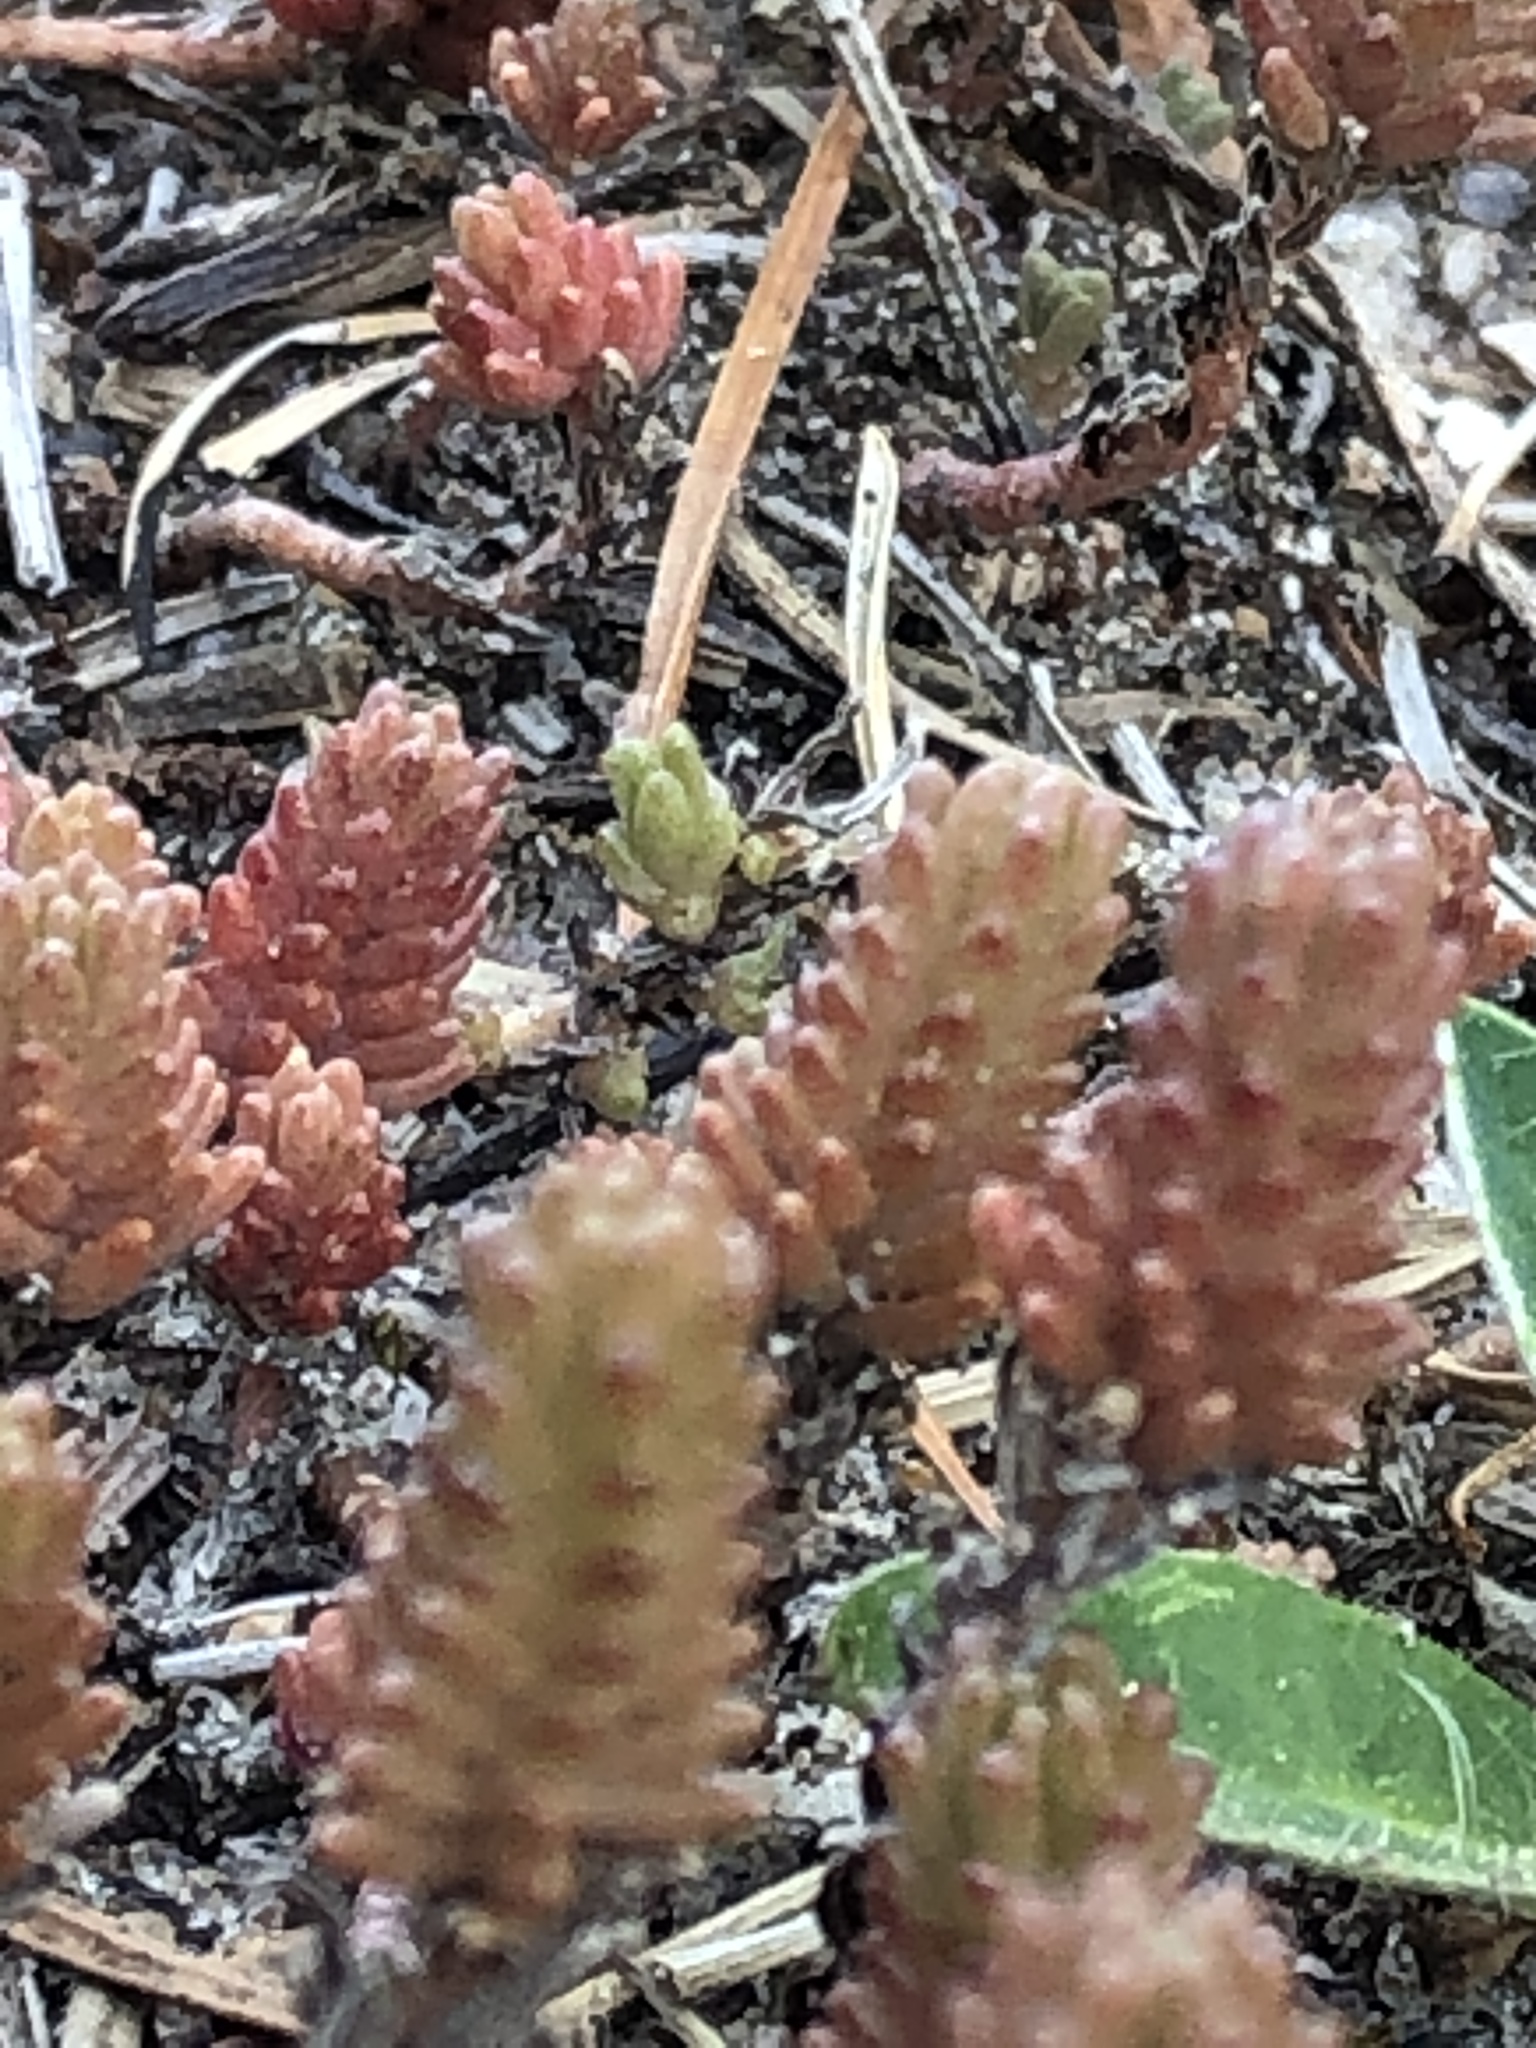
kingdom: Plantae
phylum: Tracheophyta
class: Magnoliopsida
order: Saxifragales
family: Crassulaceae
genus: Sedum
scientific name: Sedum sexangulare
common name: Tasteless stonecrop
